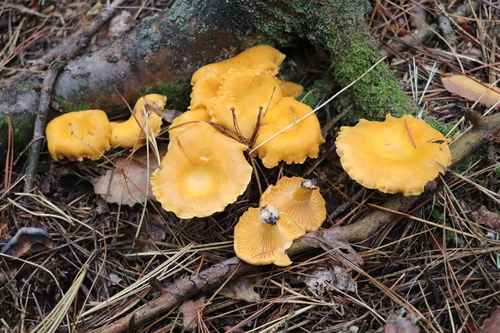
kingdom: Fungi
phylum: Basidiomycota
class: Agaricomycetes
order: Cantharellales
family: Hydnaceae
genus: Cantharellus
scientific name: Cantharellus cibarius
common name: Chanterelle
